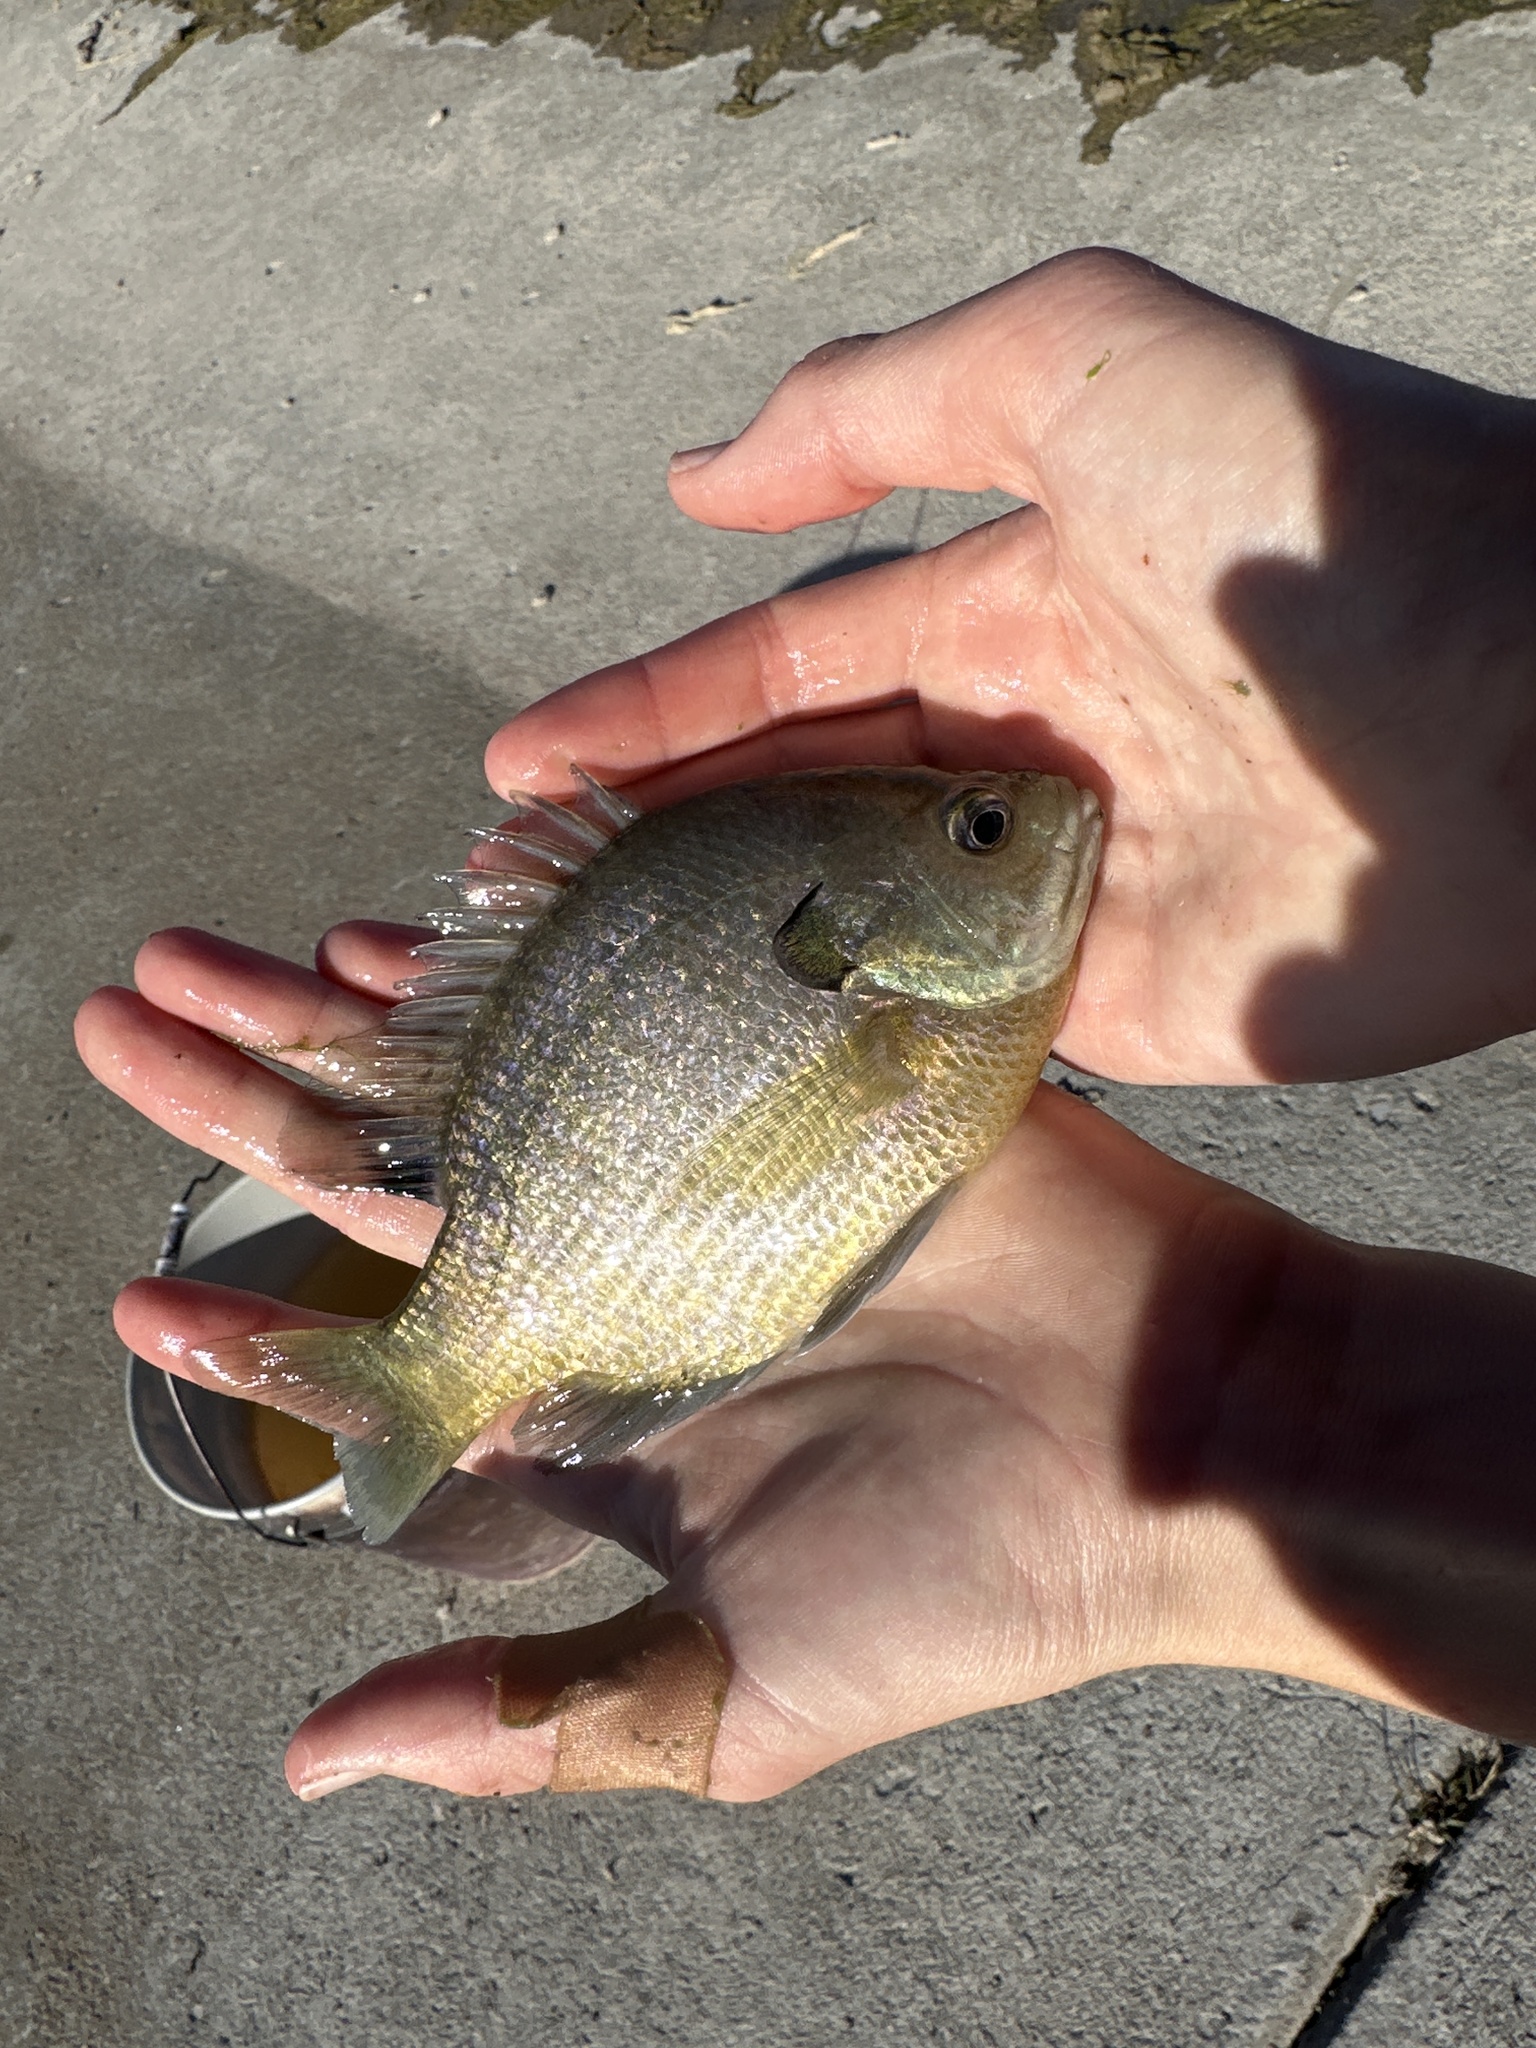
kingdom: Animalia
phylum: Chordata
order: Perciformes
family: Centrarchidae
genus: Lepomis
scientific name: Lepomis macrochirus
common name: Bluegill
